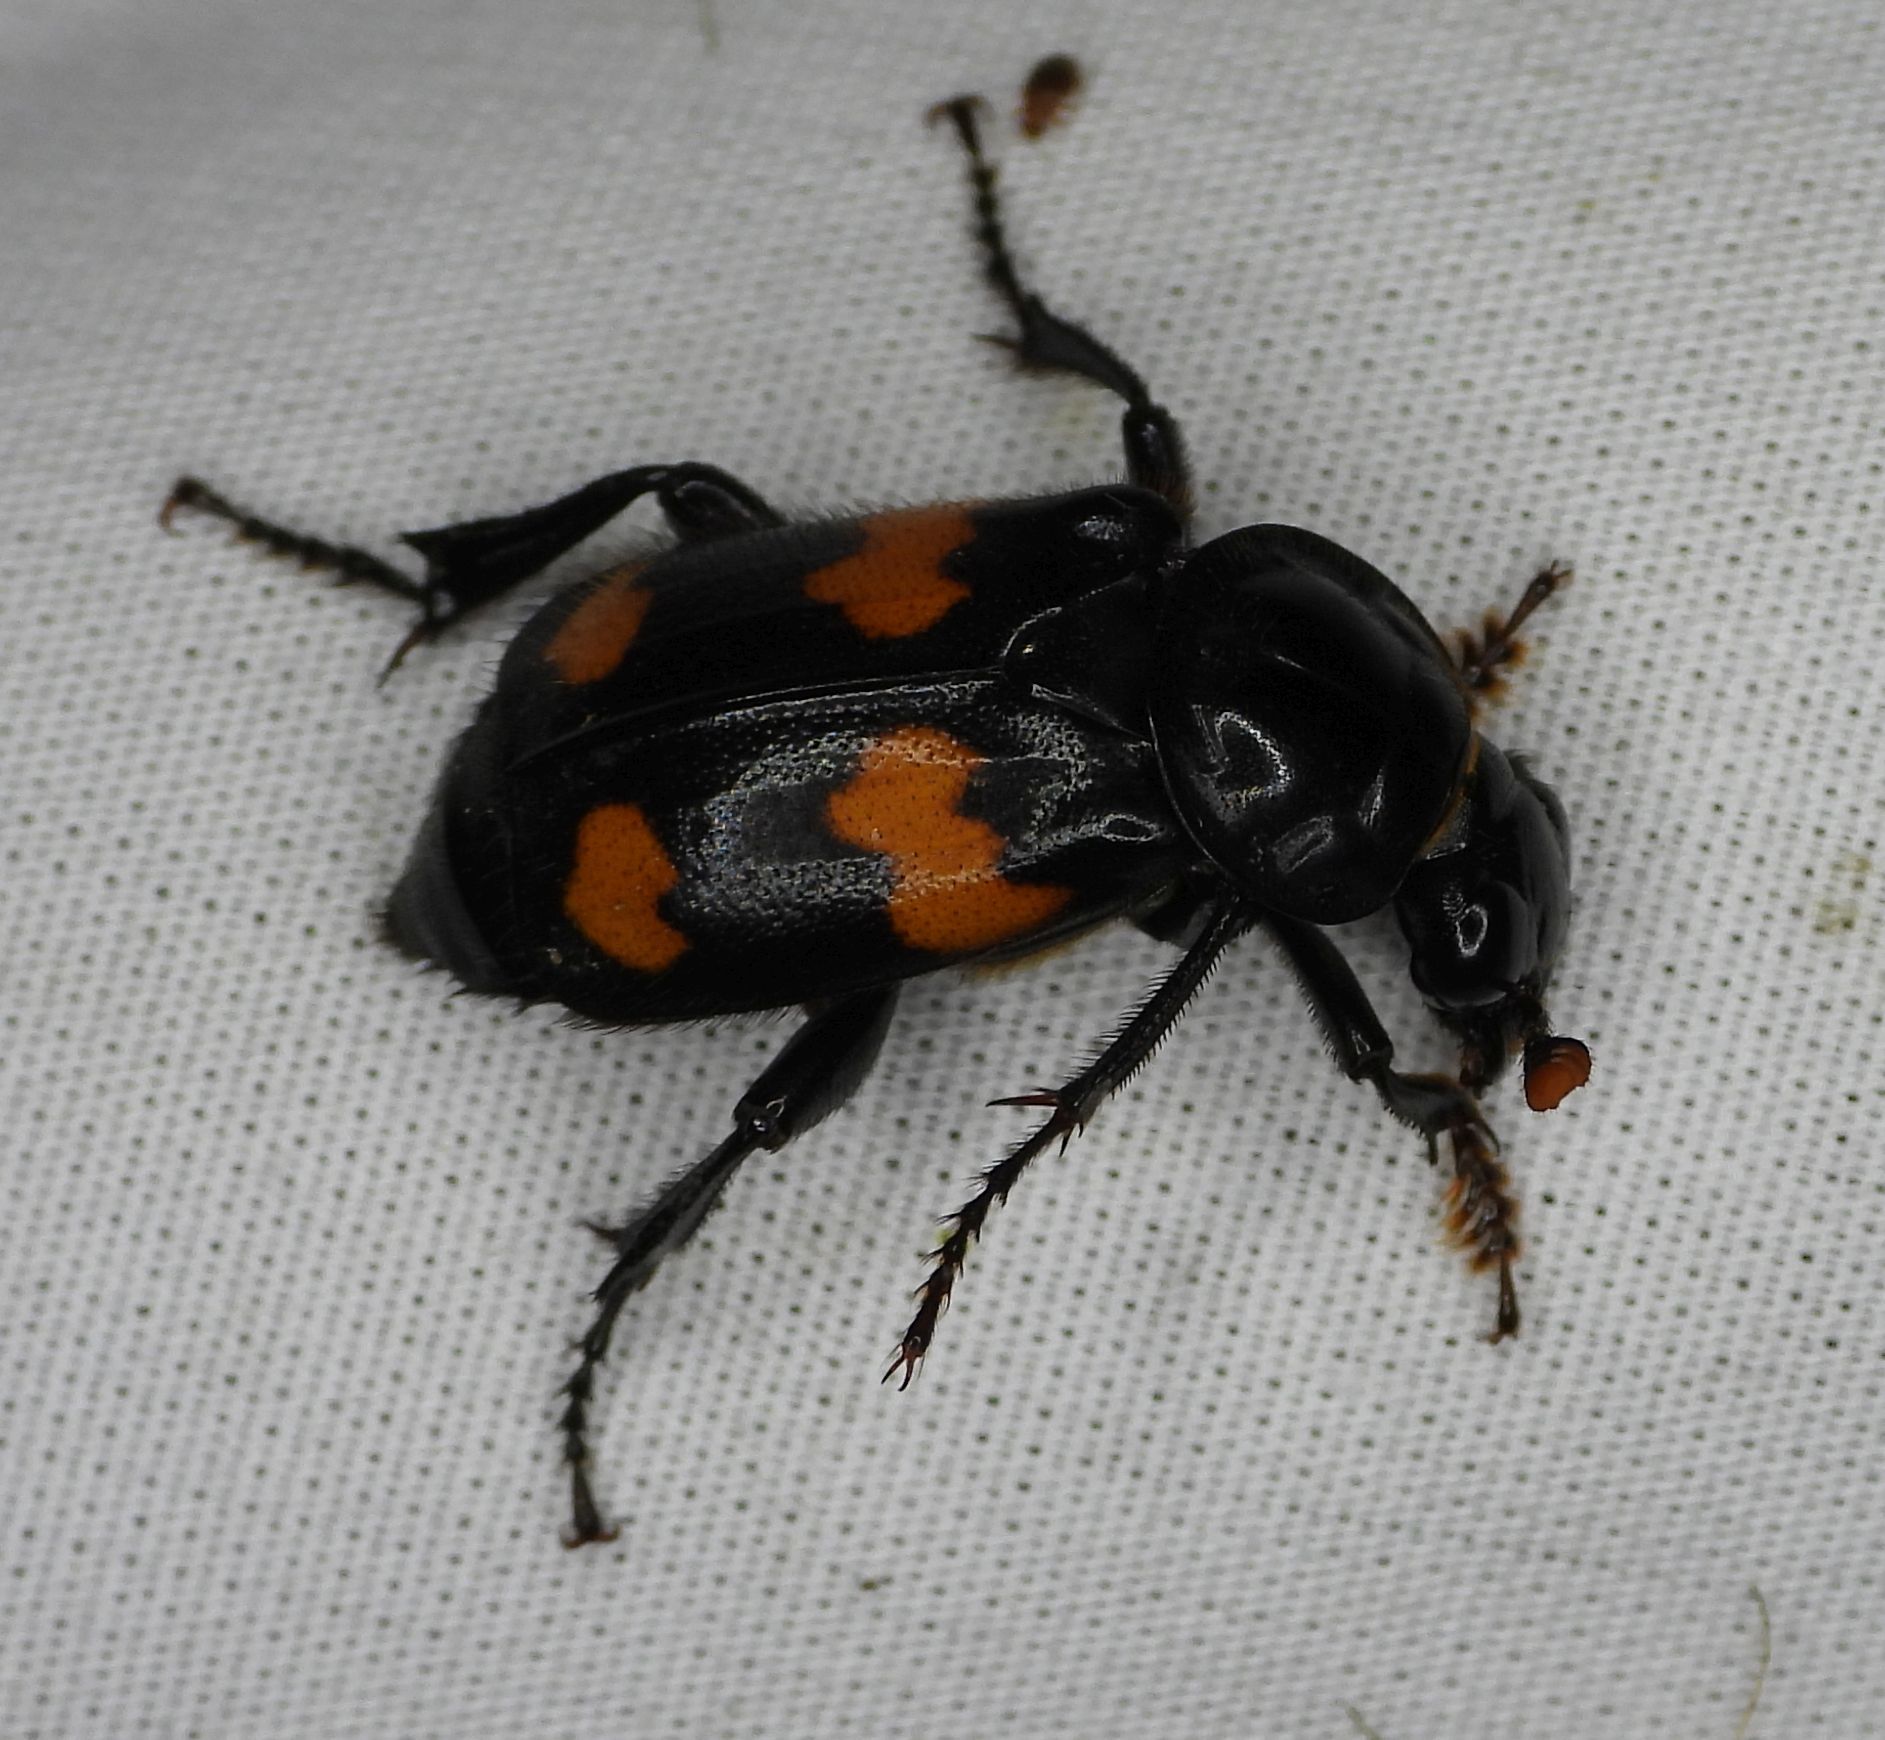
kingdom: Animalia
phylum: Arthropoda
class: Insecta
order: Coleoptera
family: Staphylinidae
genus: Nicrophorus
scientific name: Nicrophorus orbicollis
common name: Roundneck sexton beetle
